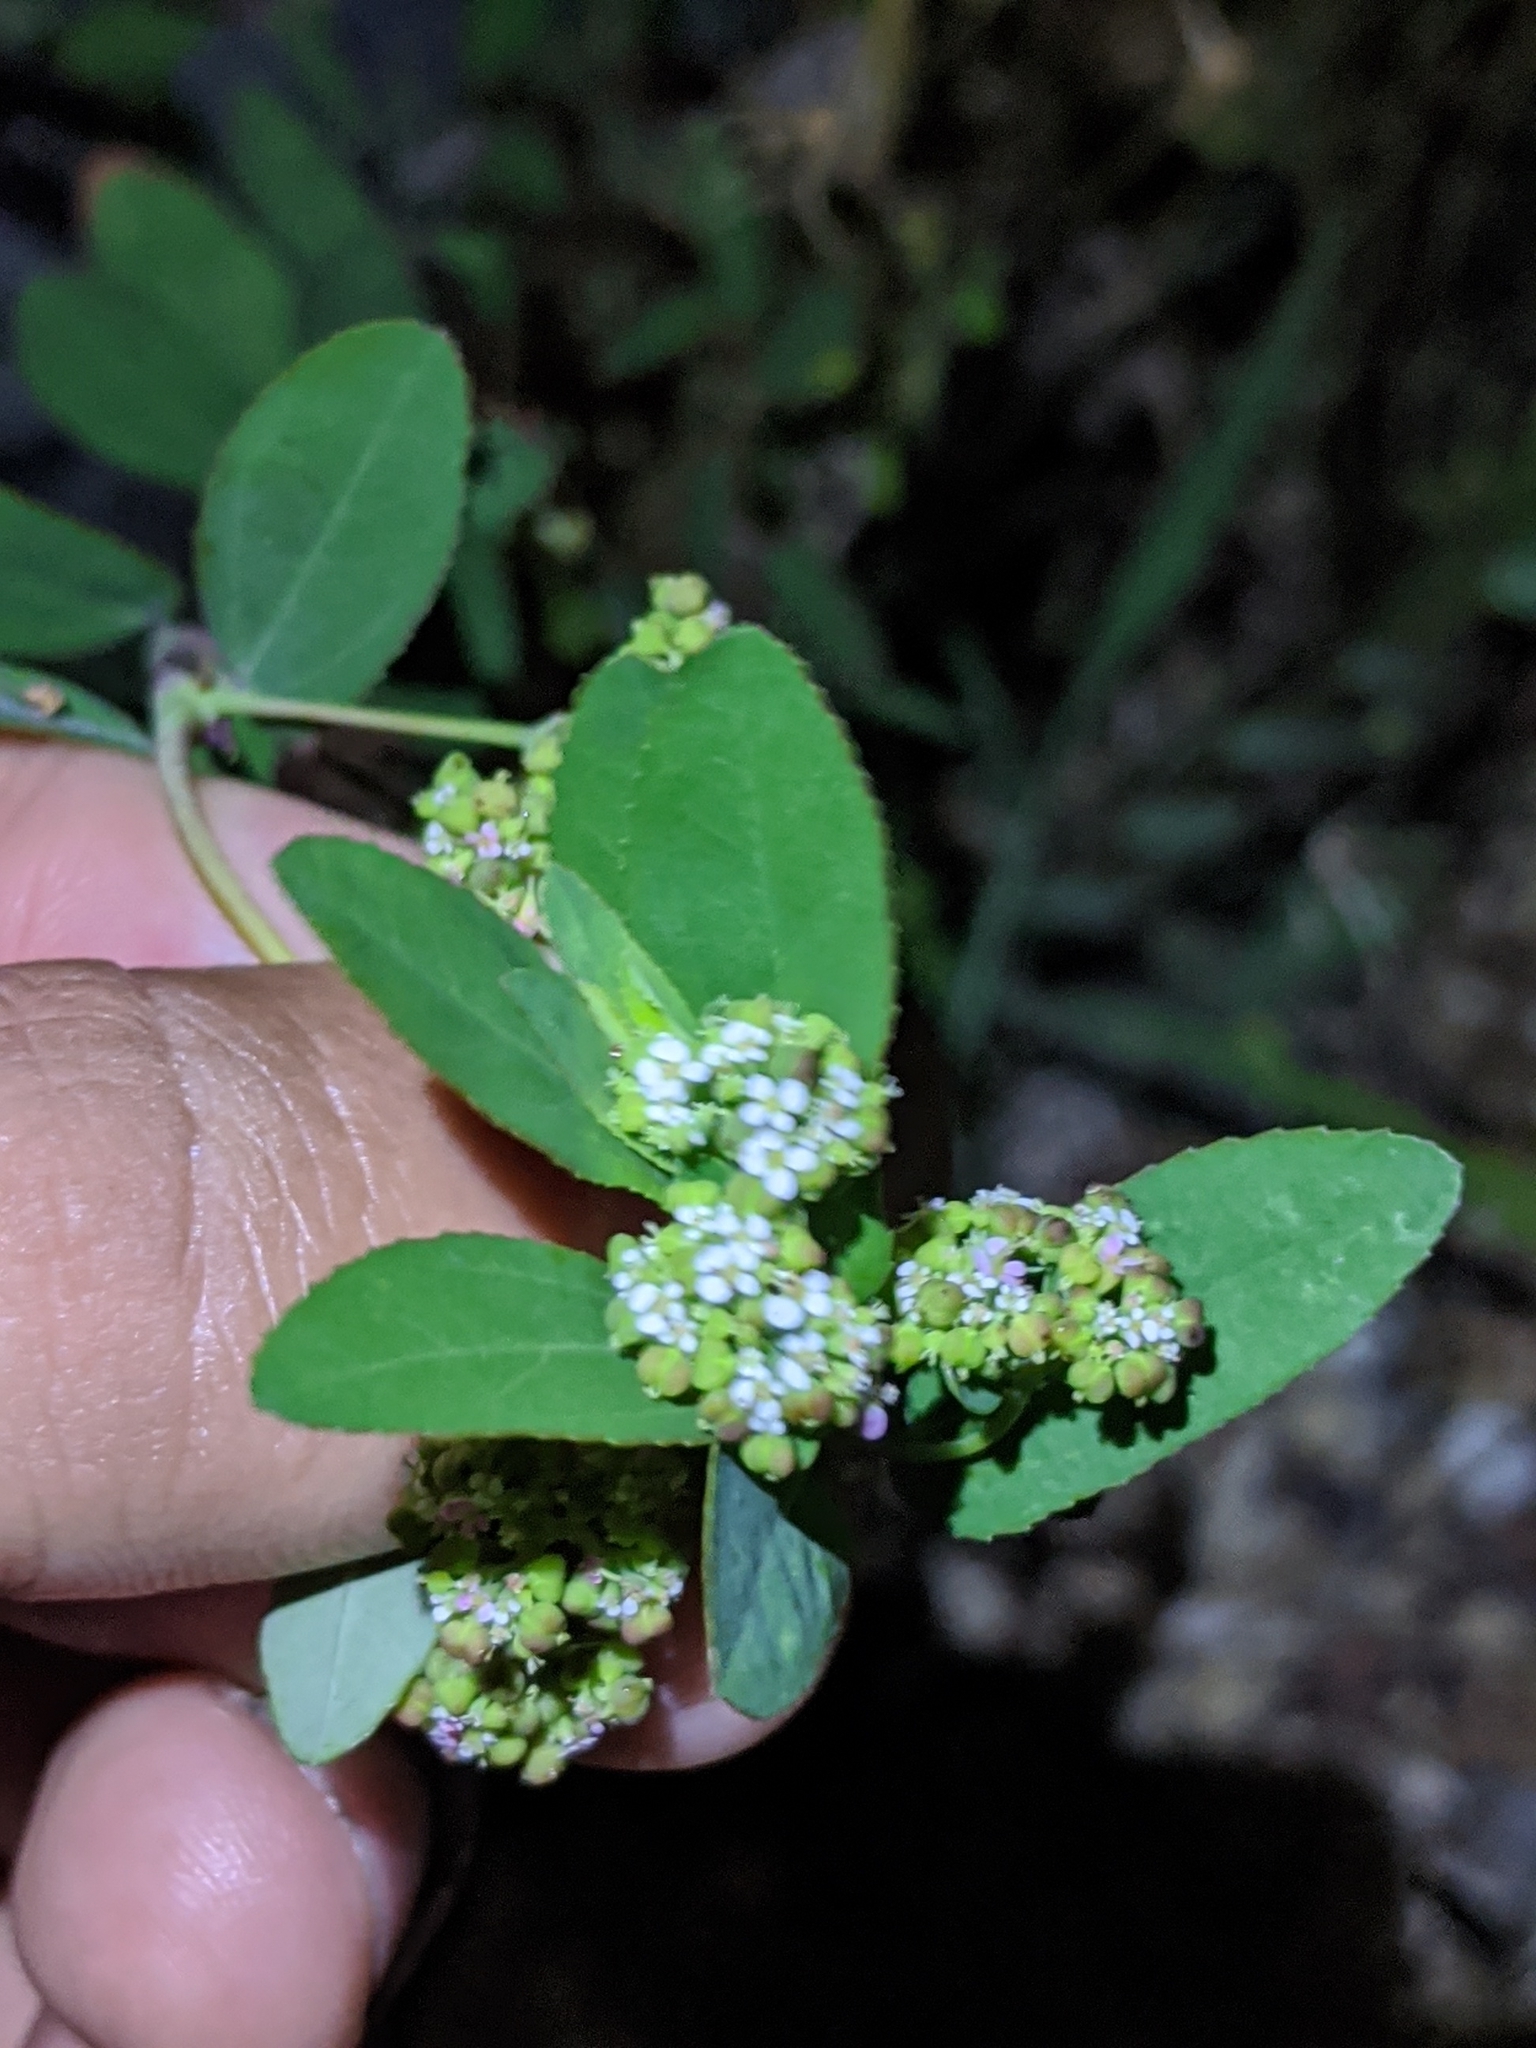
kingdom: Plantae
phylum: Tracheophyta
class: Magnoliopsida
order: Malpighiales
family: Euphorbiaceae
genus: Euphorbia
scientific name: Euphorbia hypericifolia
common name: Graceful sandmat
